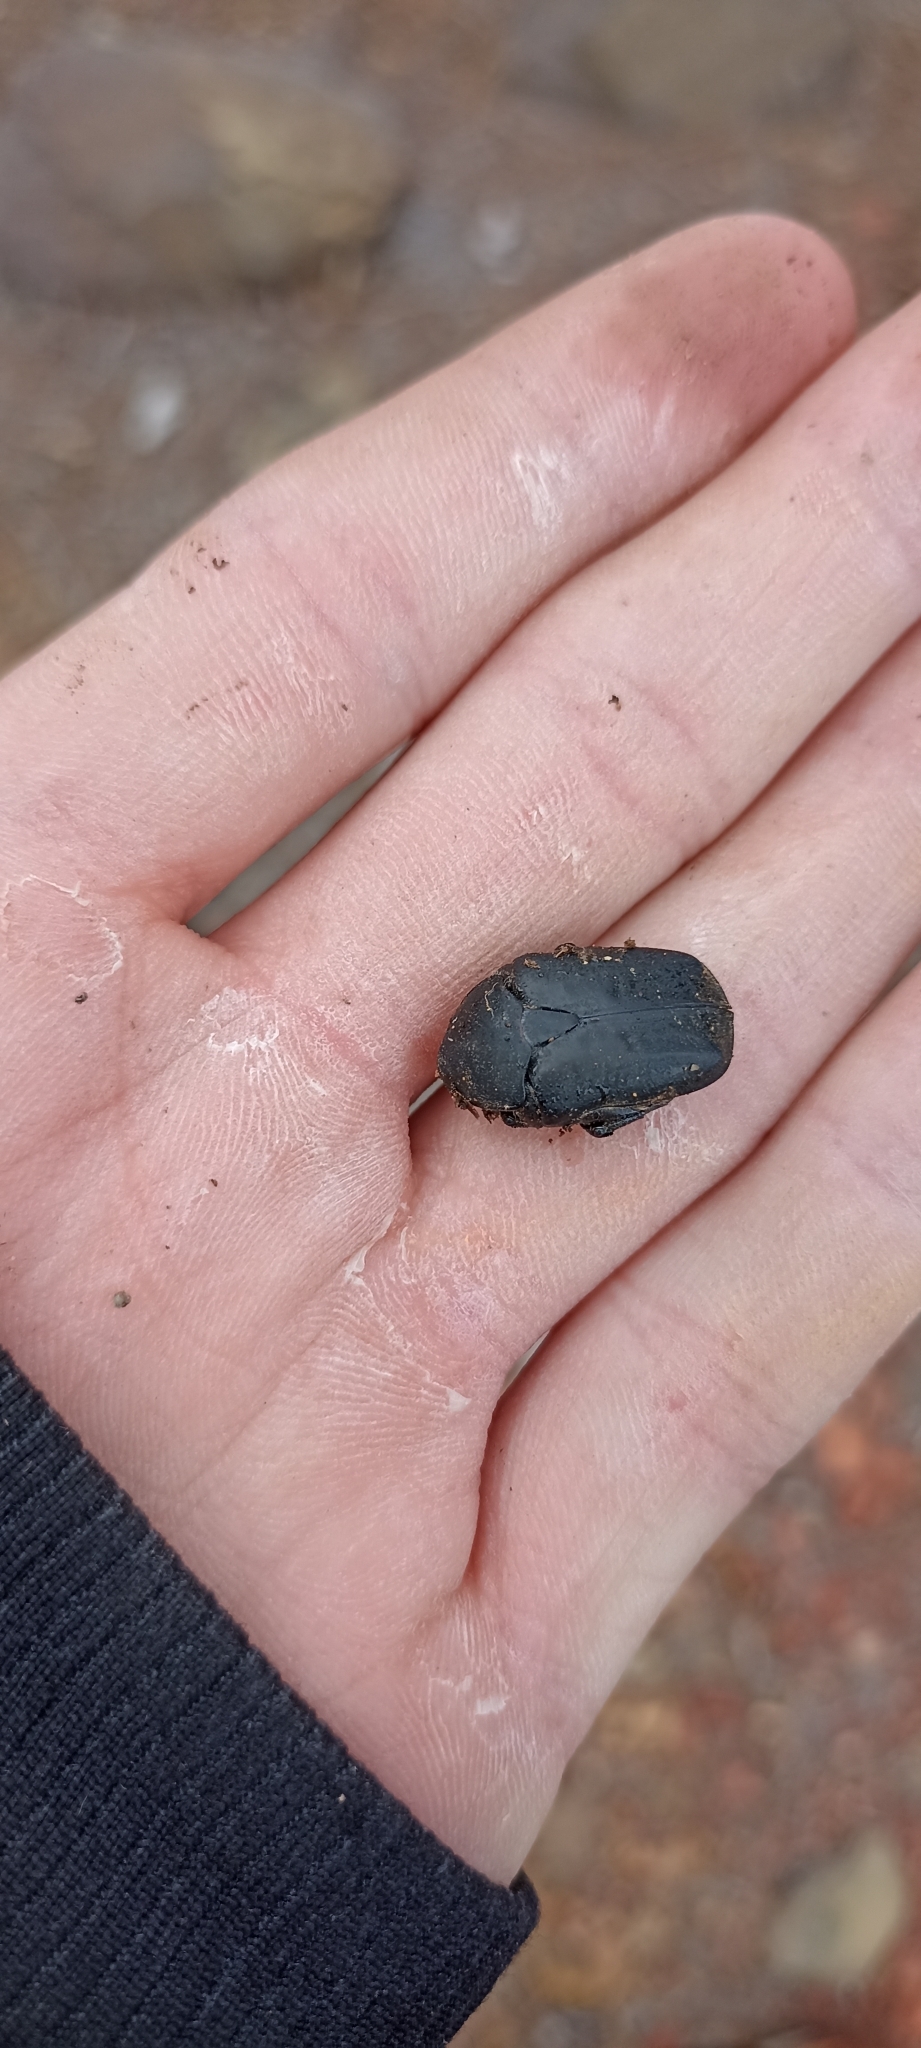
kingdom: Animalia
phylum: Arthropoda
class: Insecta
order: Coleoptera
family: Scarabaeidae
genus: Protaetia
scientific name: Protaetia morio
